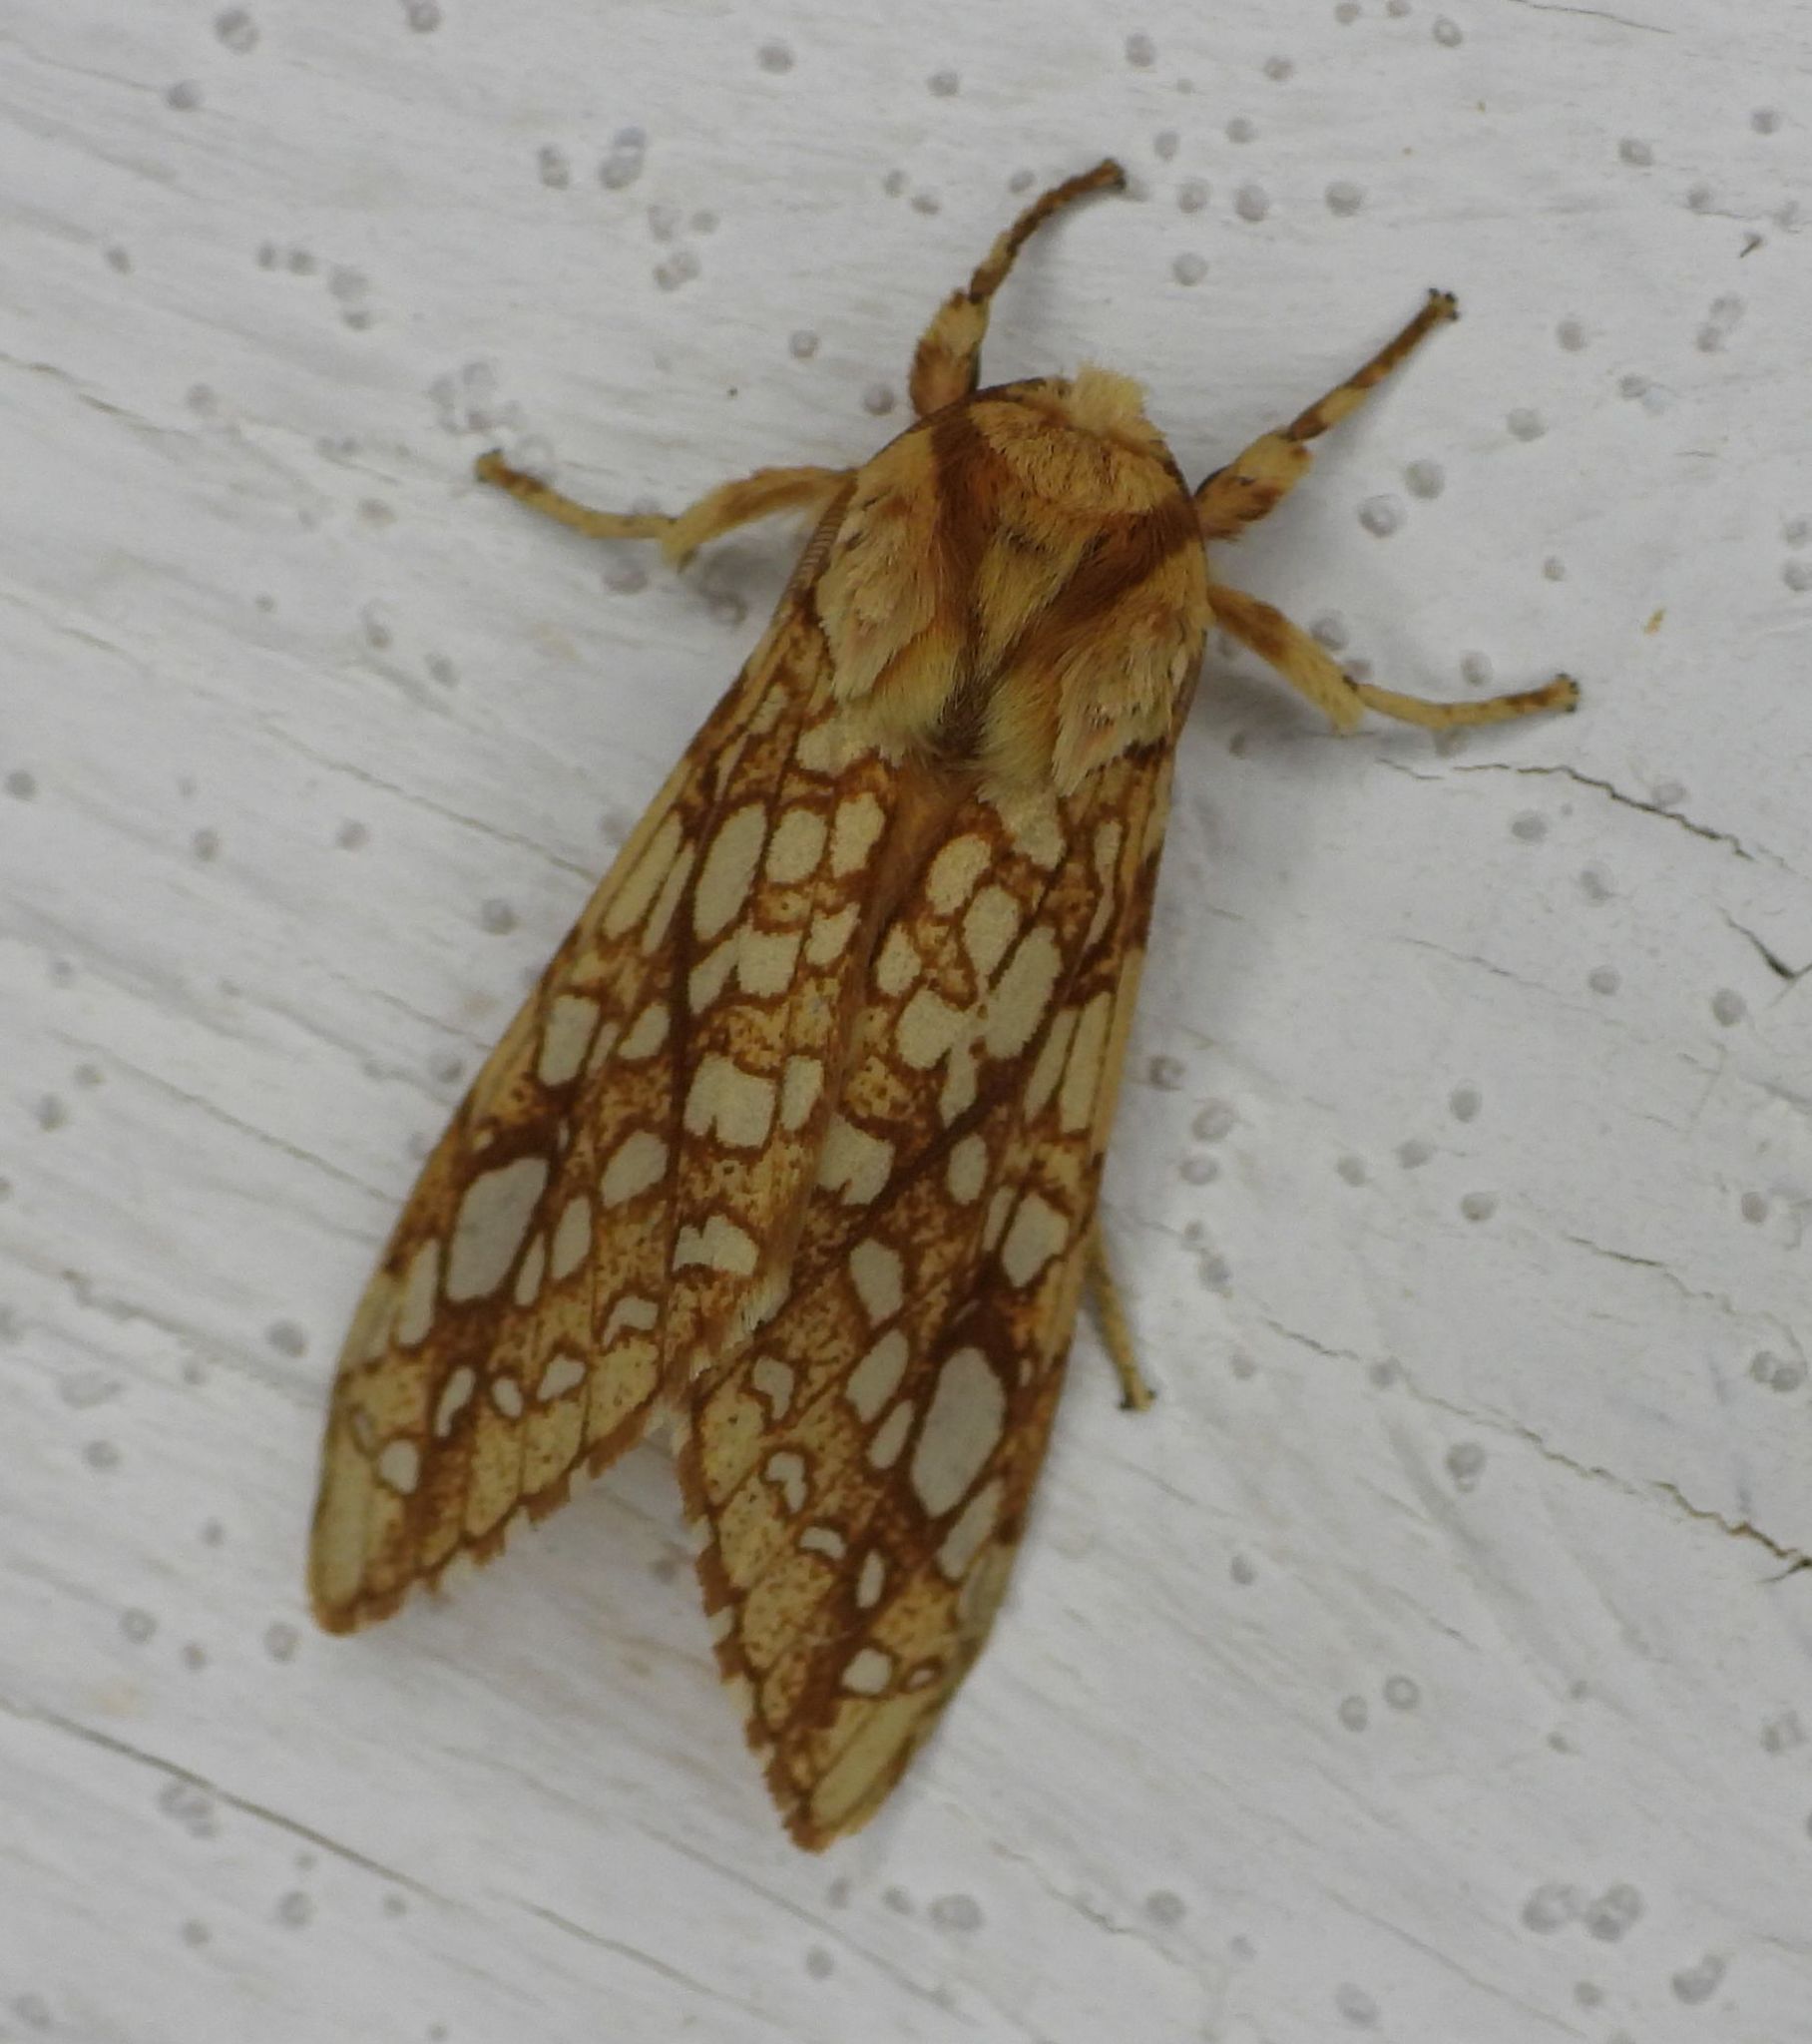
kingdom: Animalia
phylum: Arthropoda
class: Insecta
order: Lepidoptera
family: Erebidae
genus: Lophocampa
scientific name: Lophocampa caryae
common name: Hickory tussock moth
